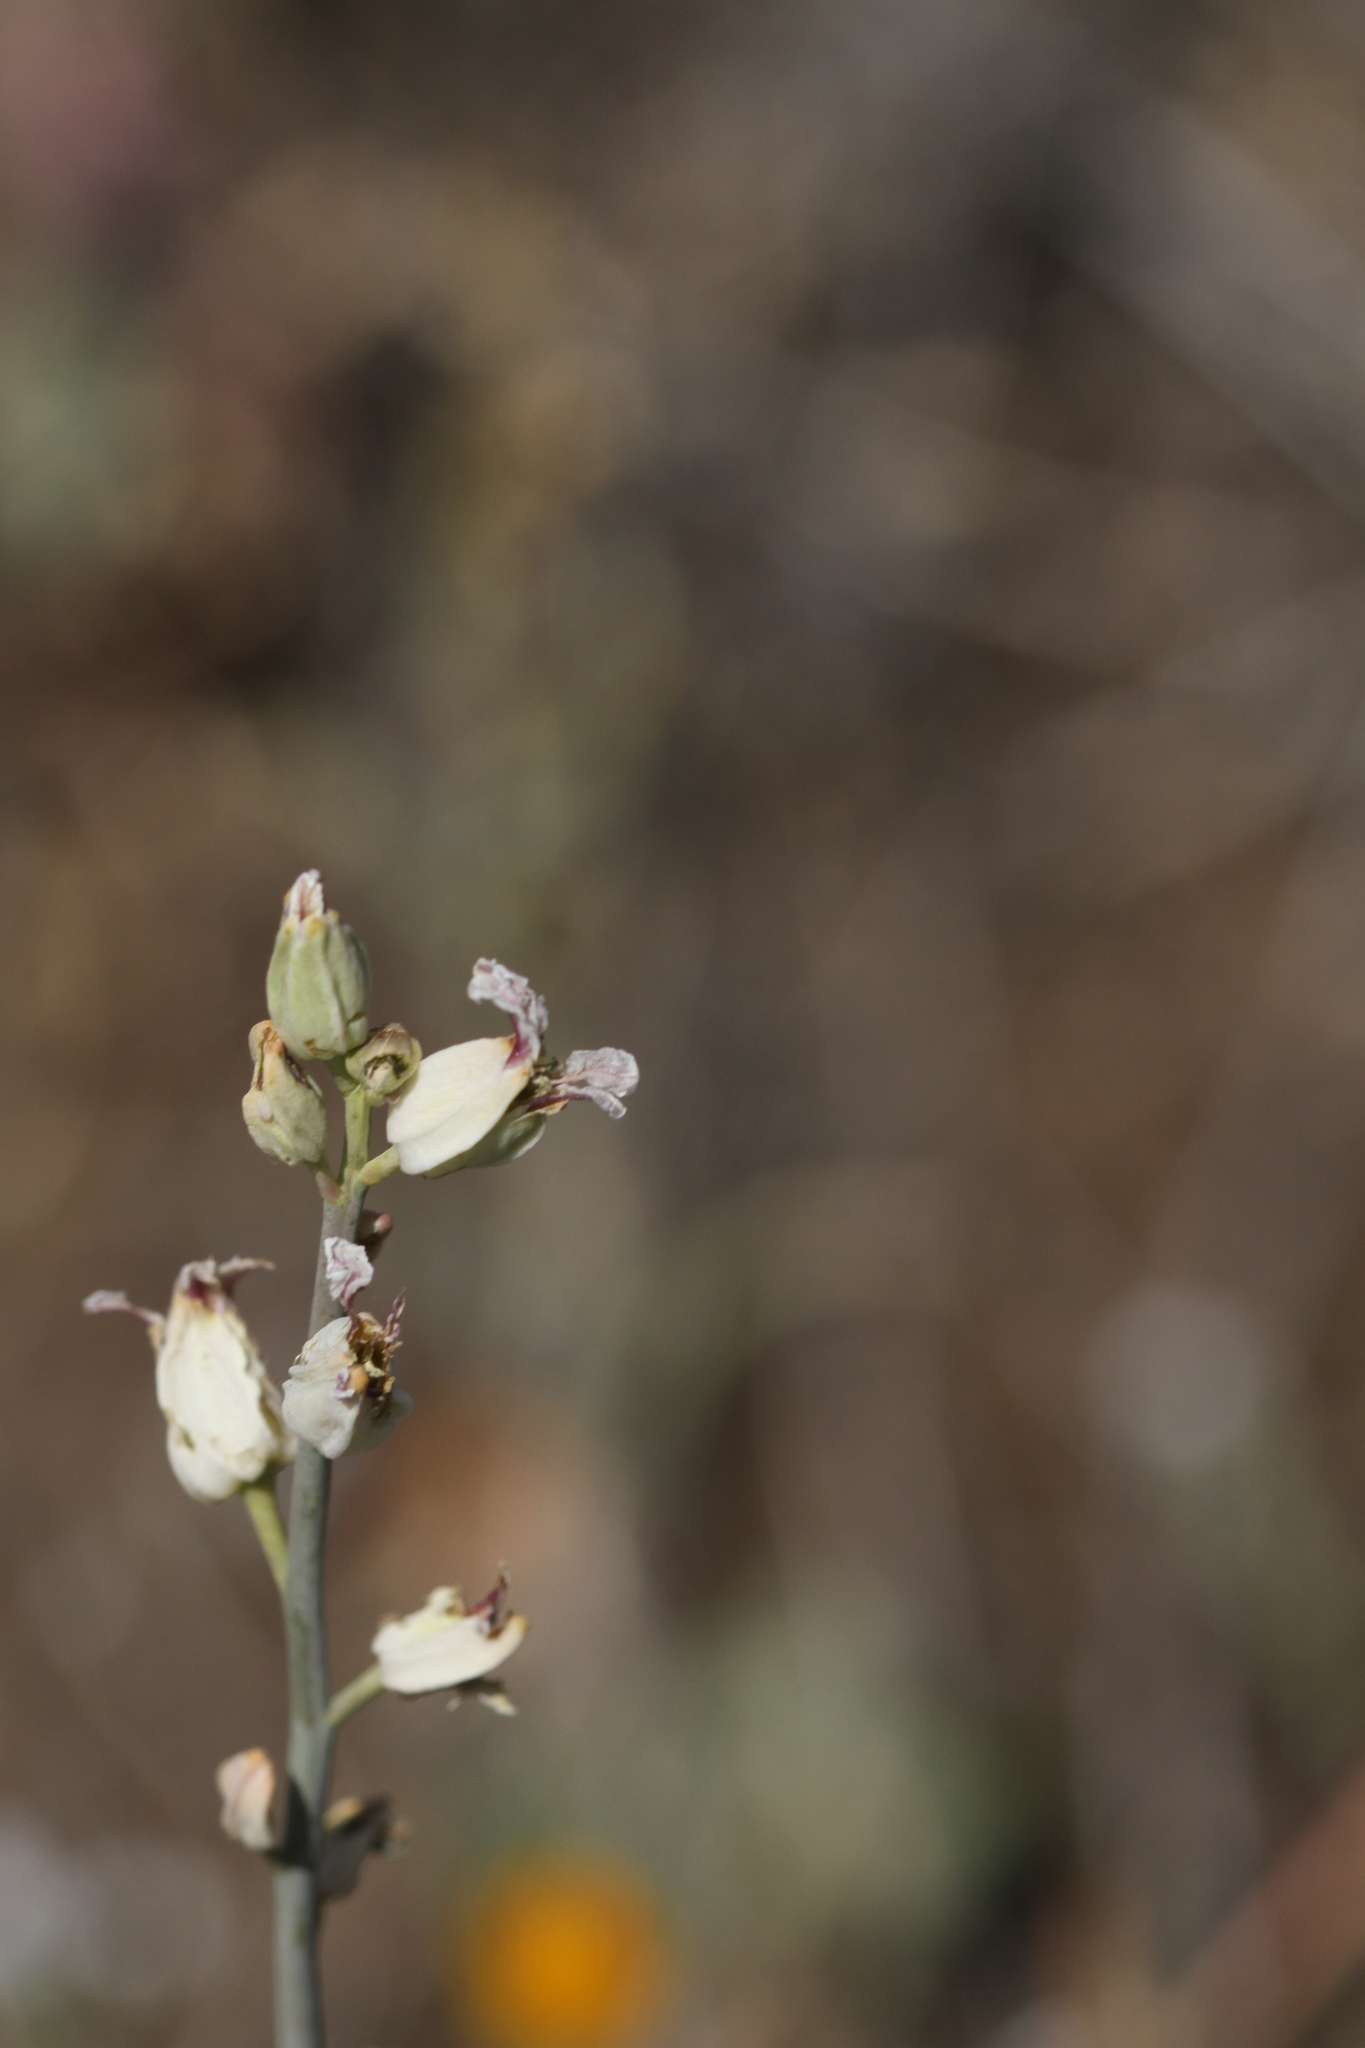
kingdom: Plantae
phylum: Tracheophyta
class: Magnoliopsida
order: Brassicales
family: Brassicaceae
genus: Streptanthus
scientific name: Streptanthus glandulosus
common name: Jewel-flower
